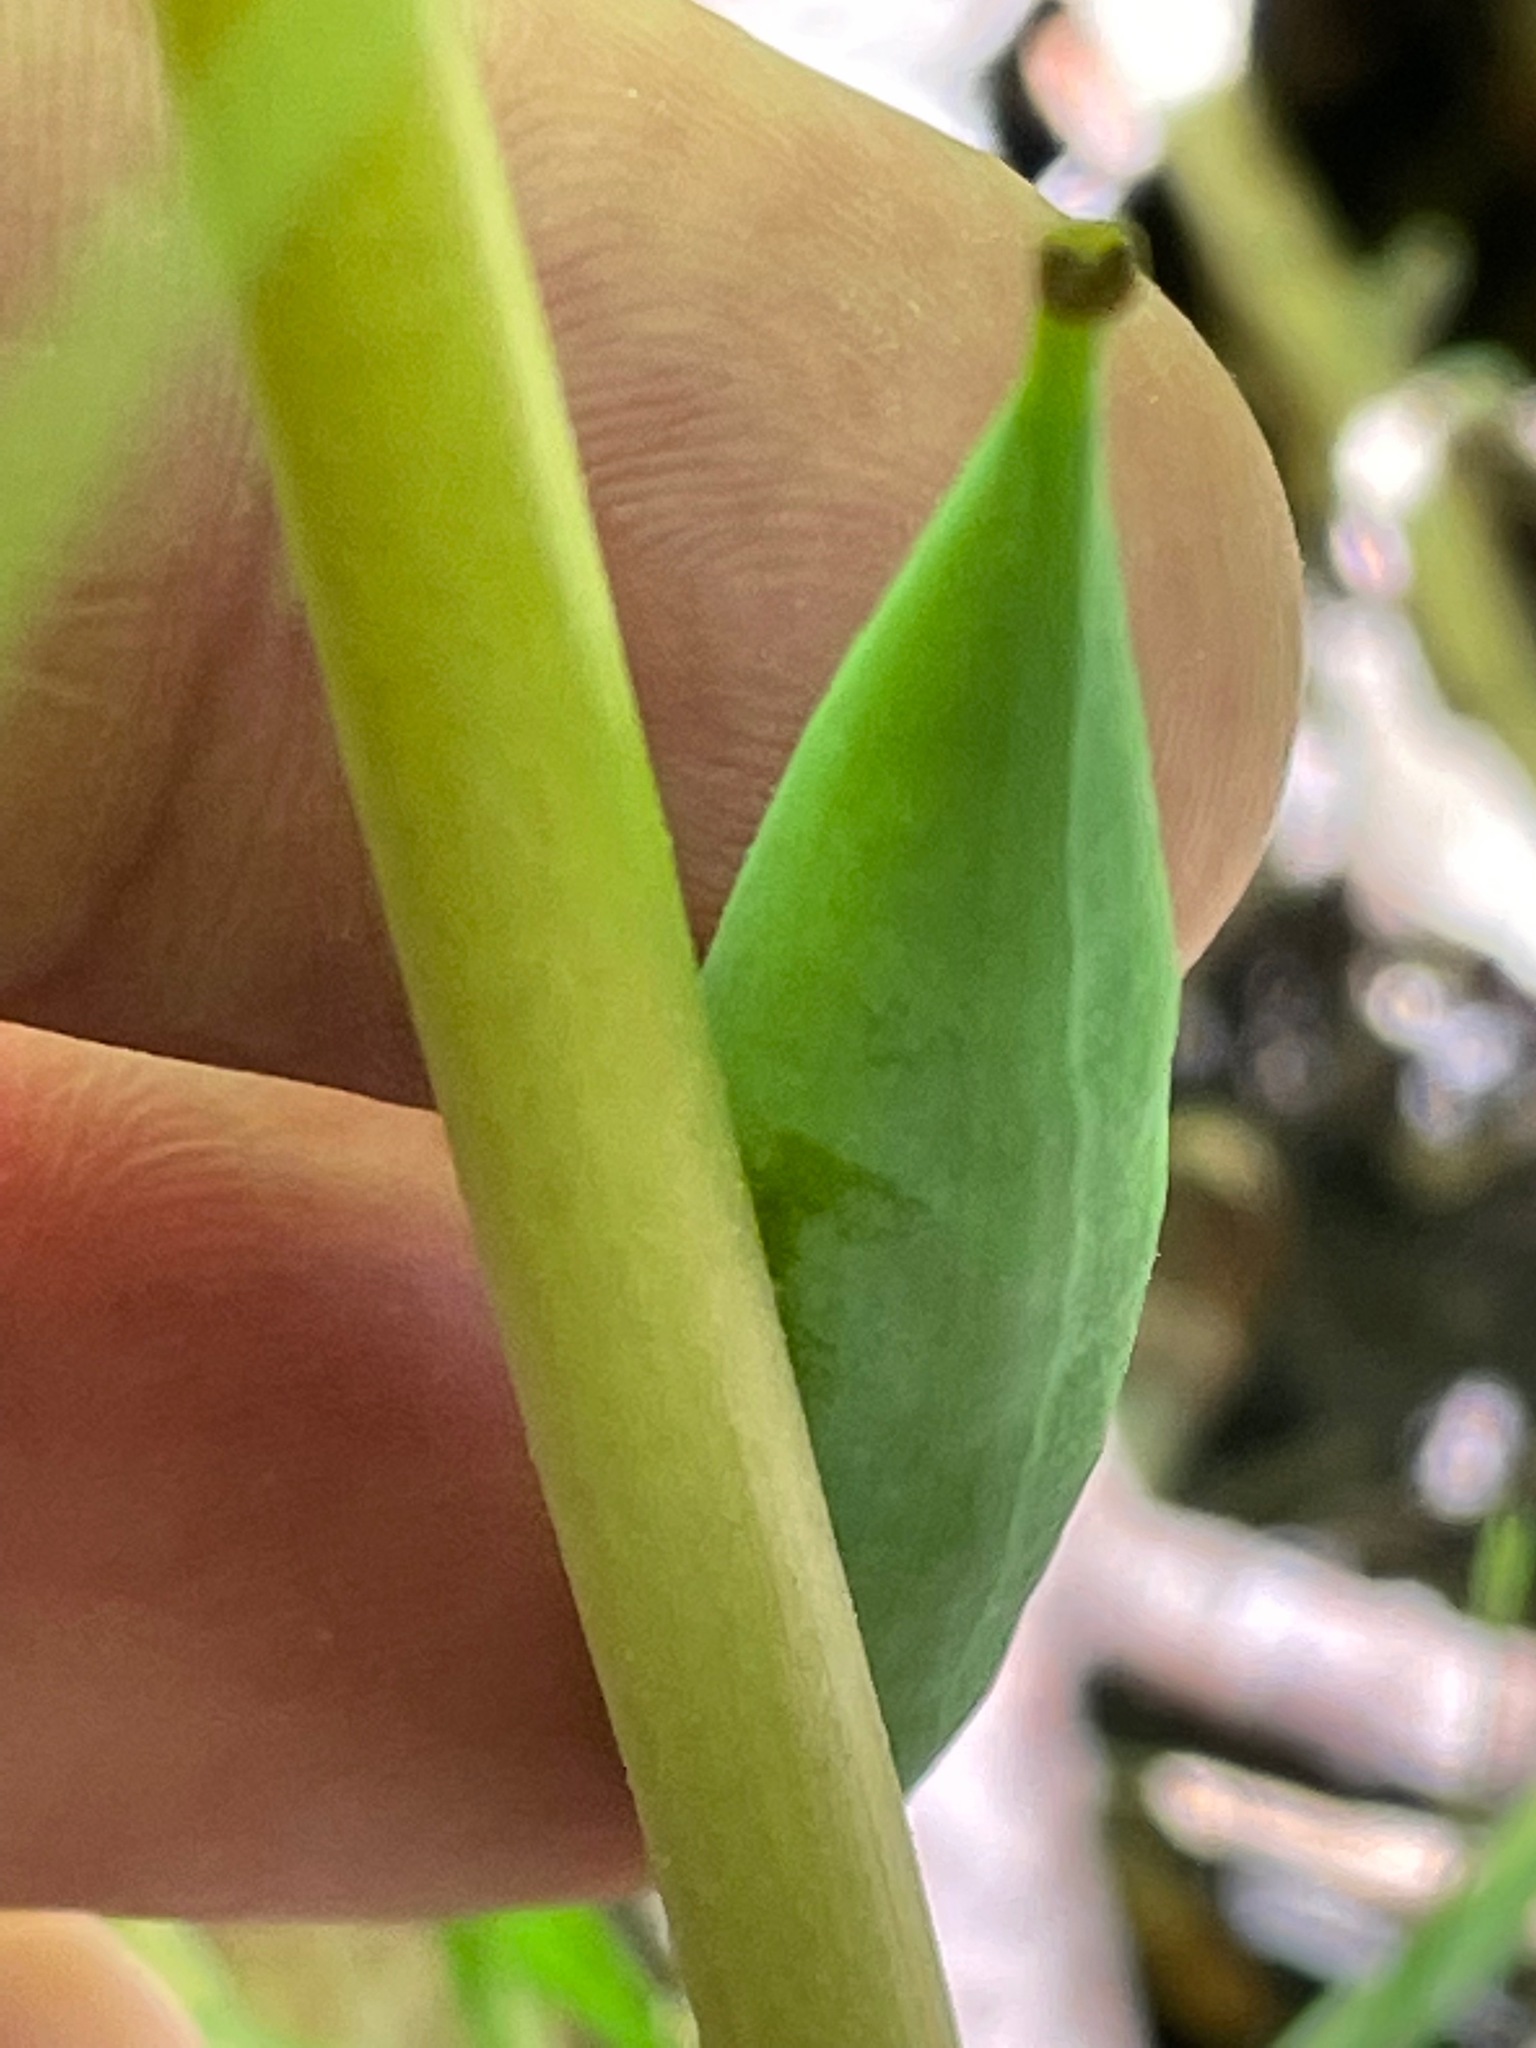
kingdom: Plantae
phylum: Tracheophyta
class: Magnoliopsida
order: Ranunculales
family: Papaveraceae
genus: Sanguinaria
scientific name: Sanguinaria canadensis
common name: Bloodroot
